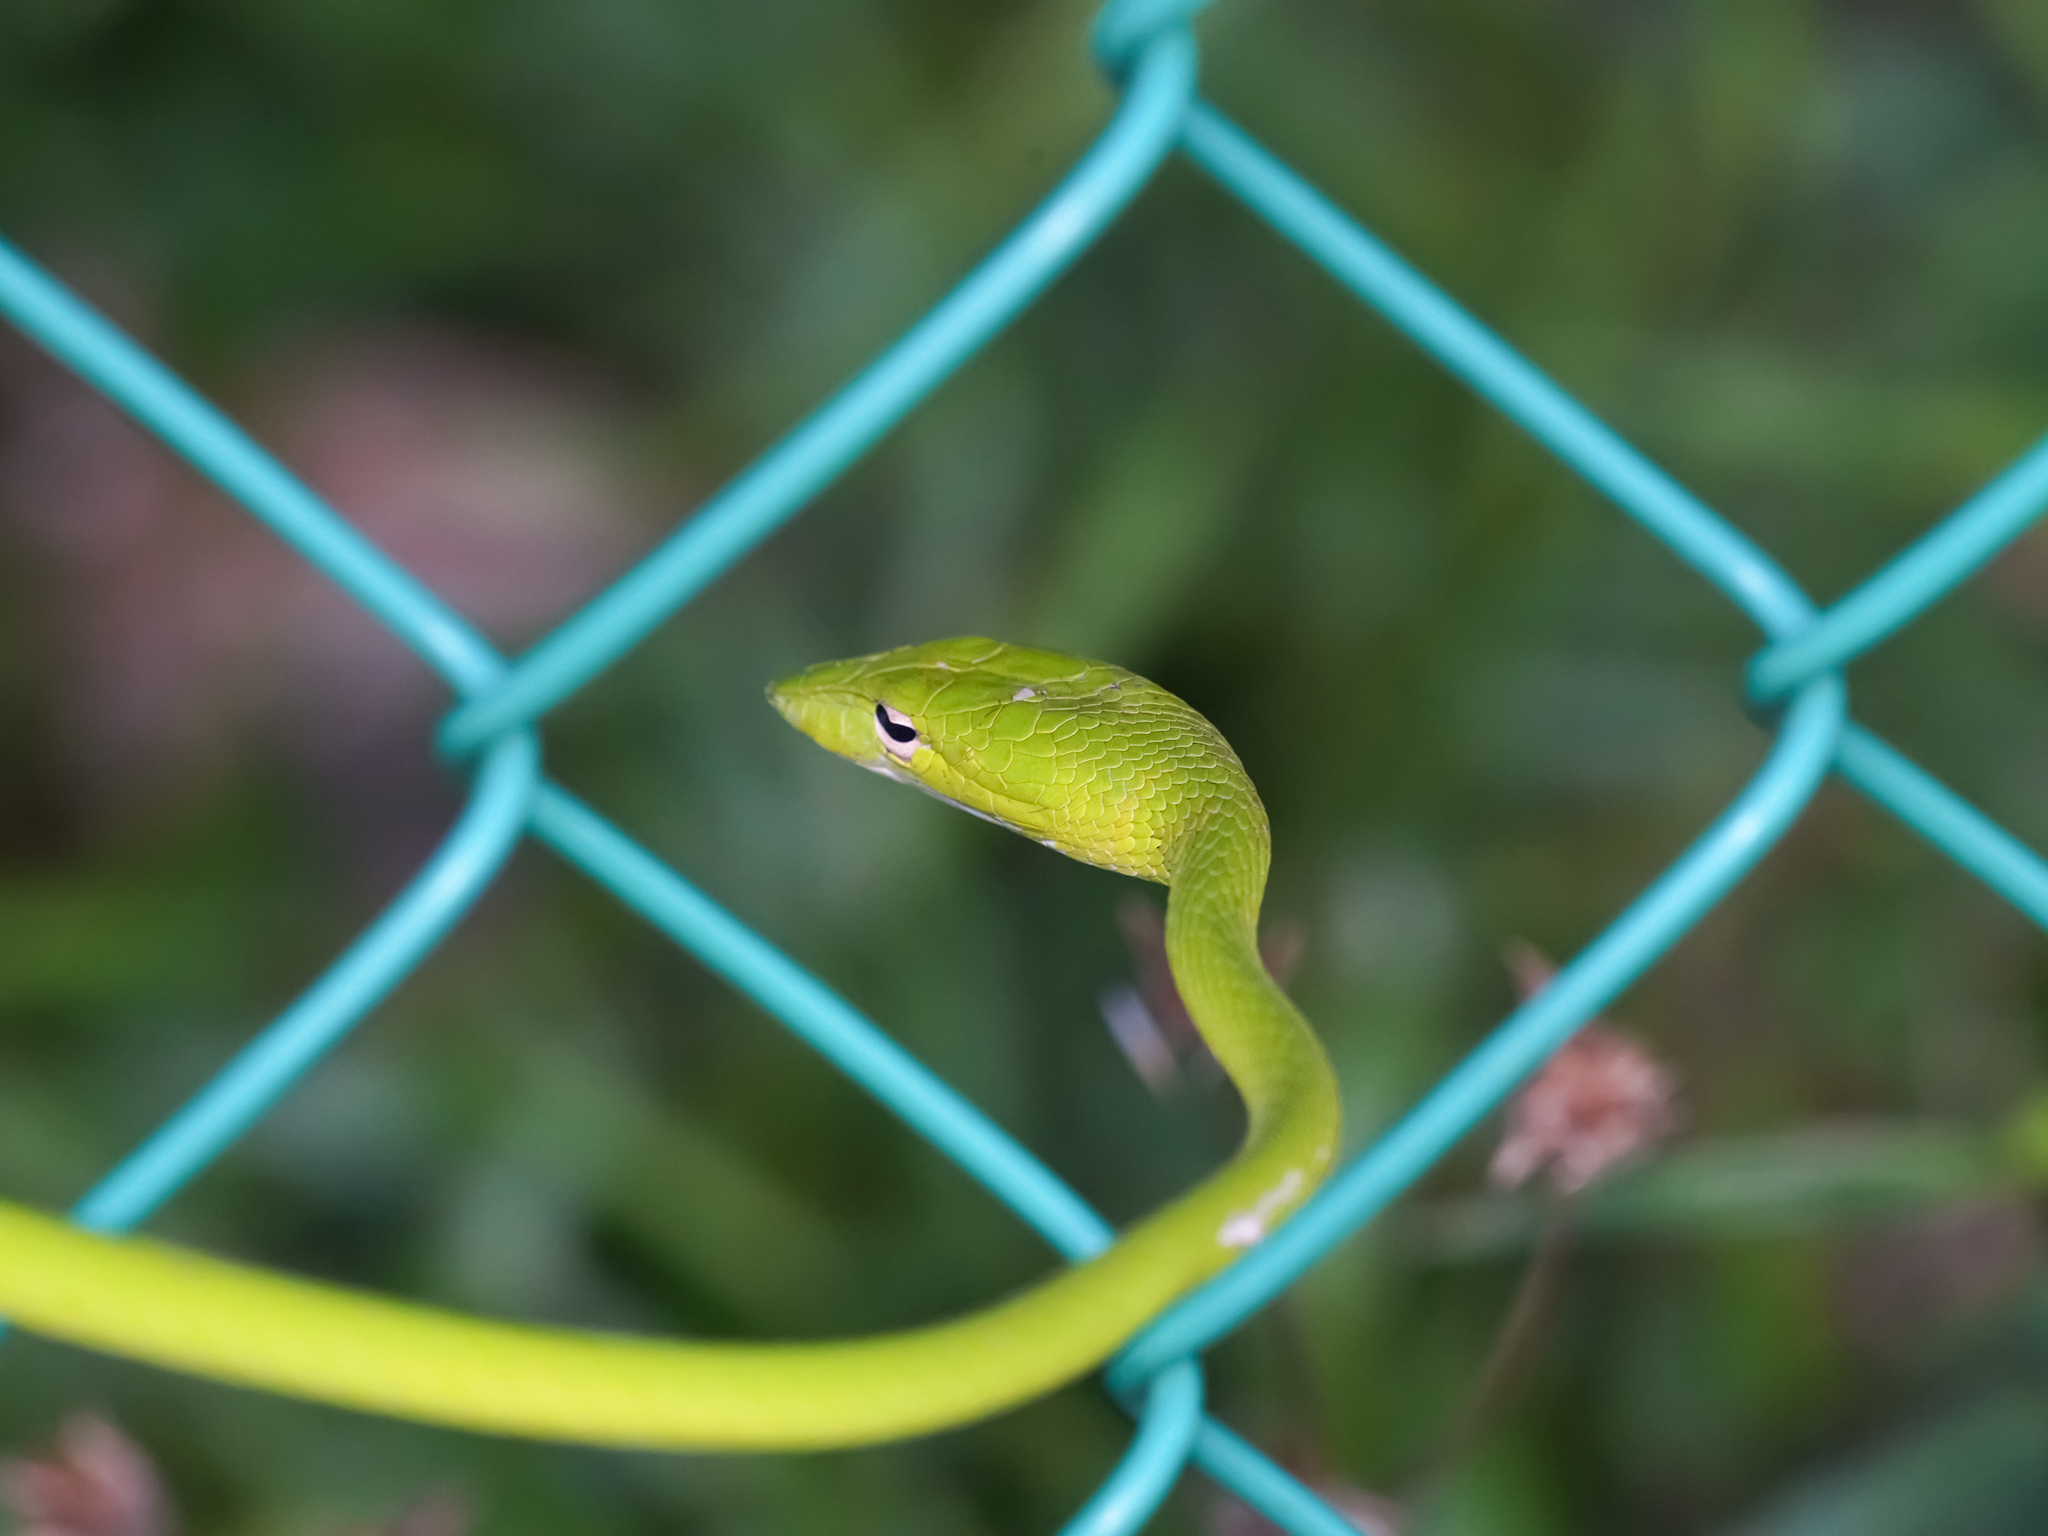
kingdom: Animalia
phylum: Chordata
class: Squamata
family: Colubridae
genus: Ahaetulla
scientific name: Ahaetulla prasina
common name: Oriental whip snake
